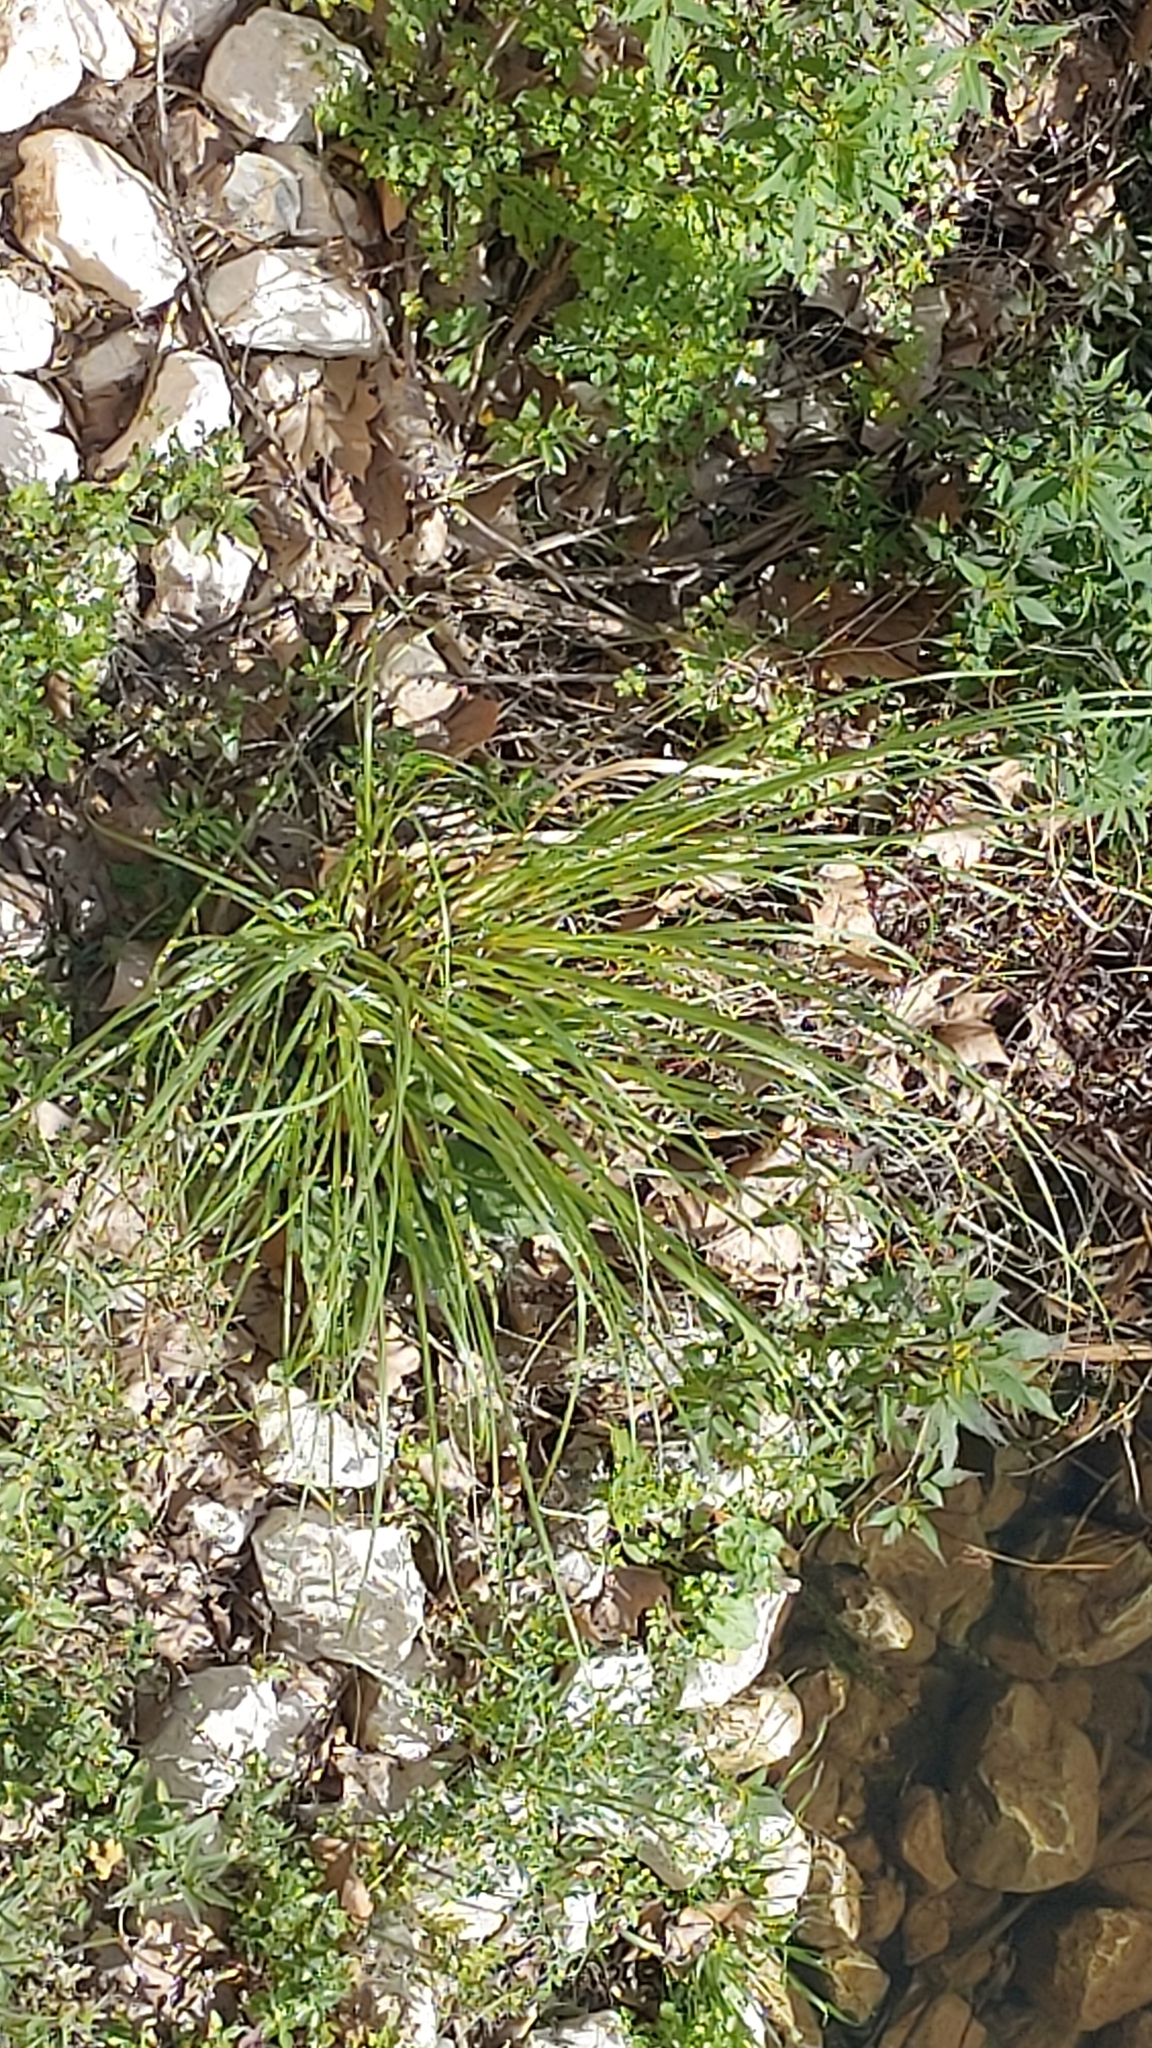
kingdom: Plantae
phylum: Tracheophyta
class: Liliopsida
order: Poales
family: Poaceae
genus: Cortaderia
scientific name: Cortaderia selloana
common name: Uruguayan pampas grass
